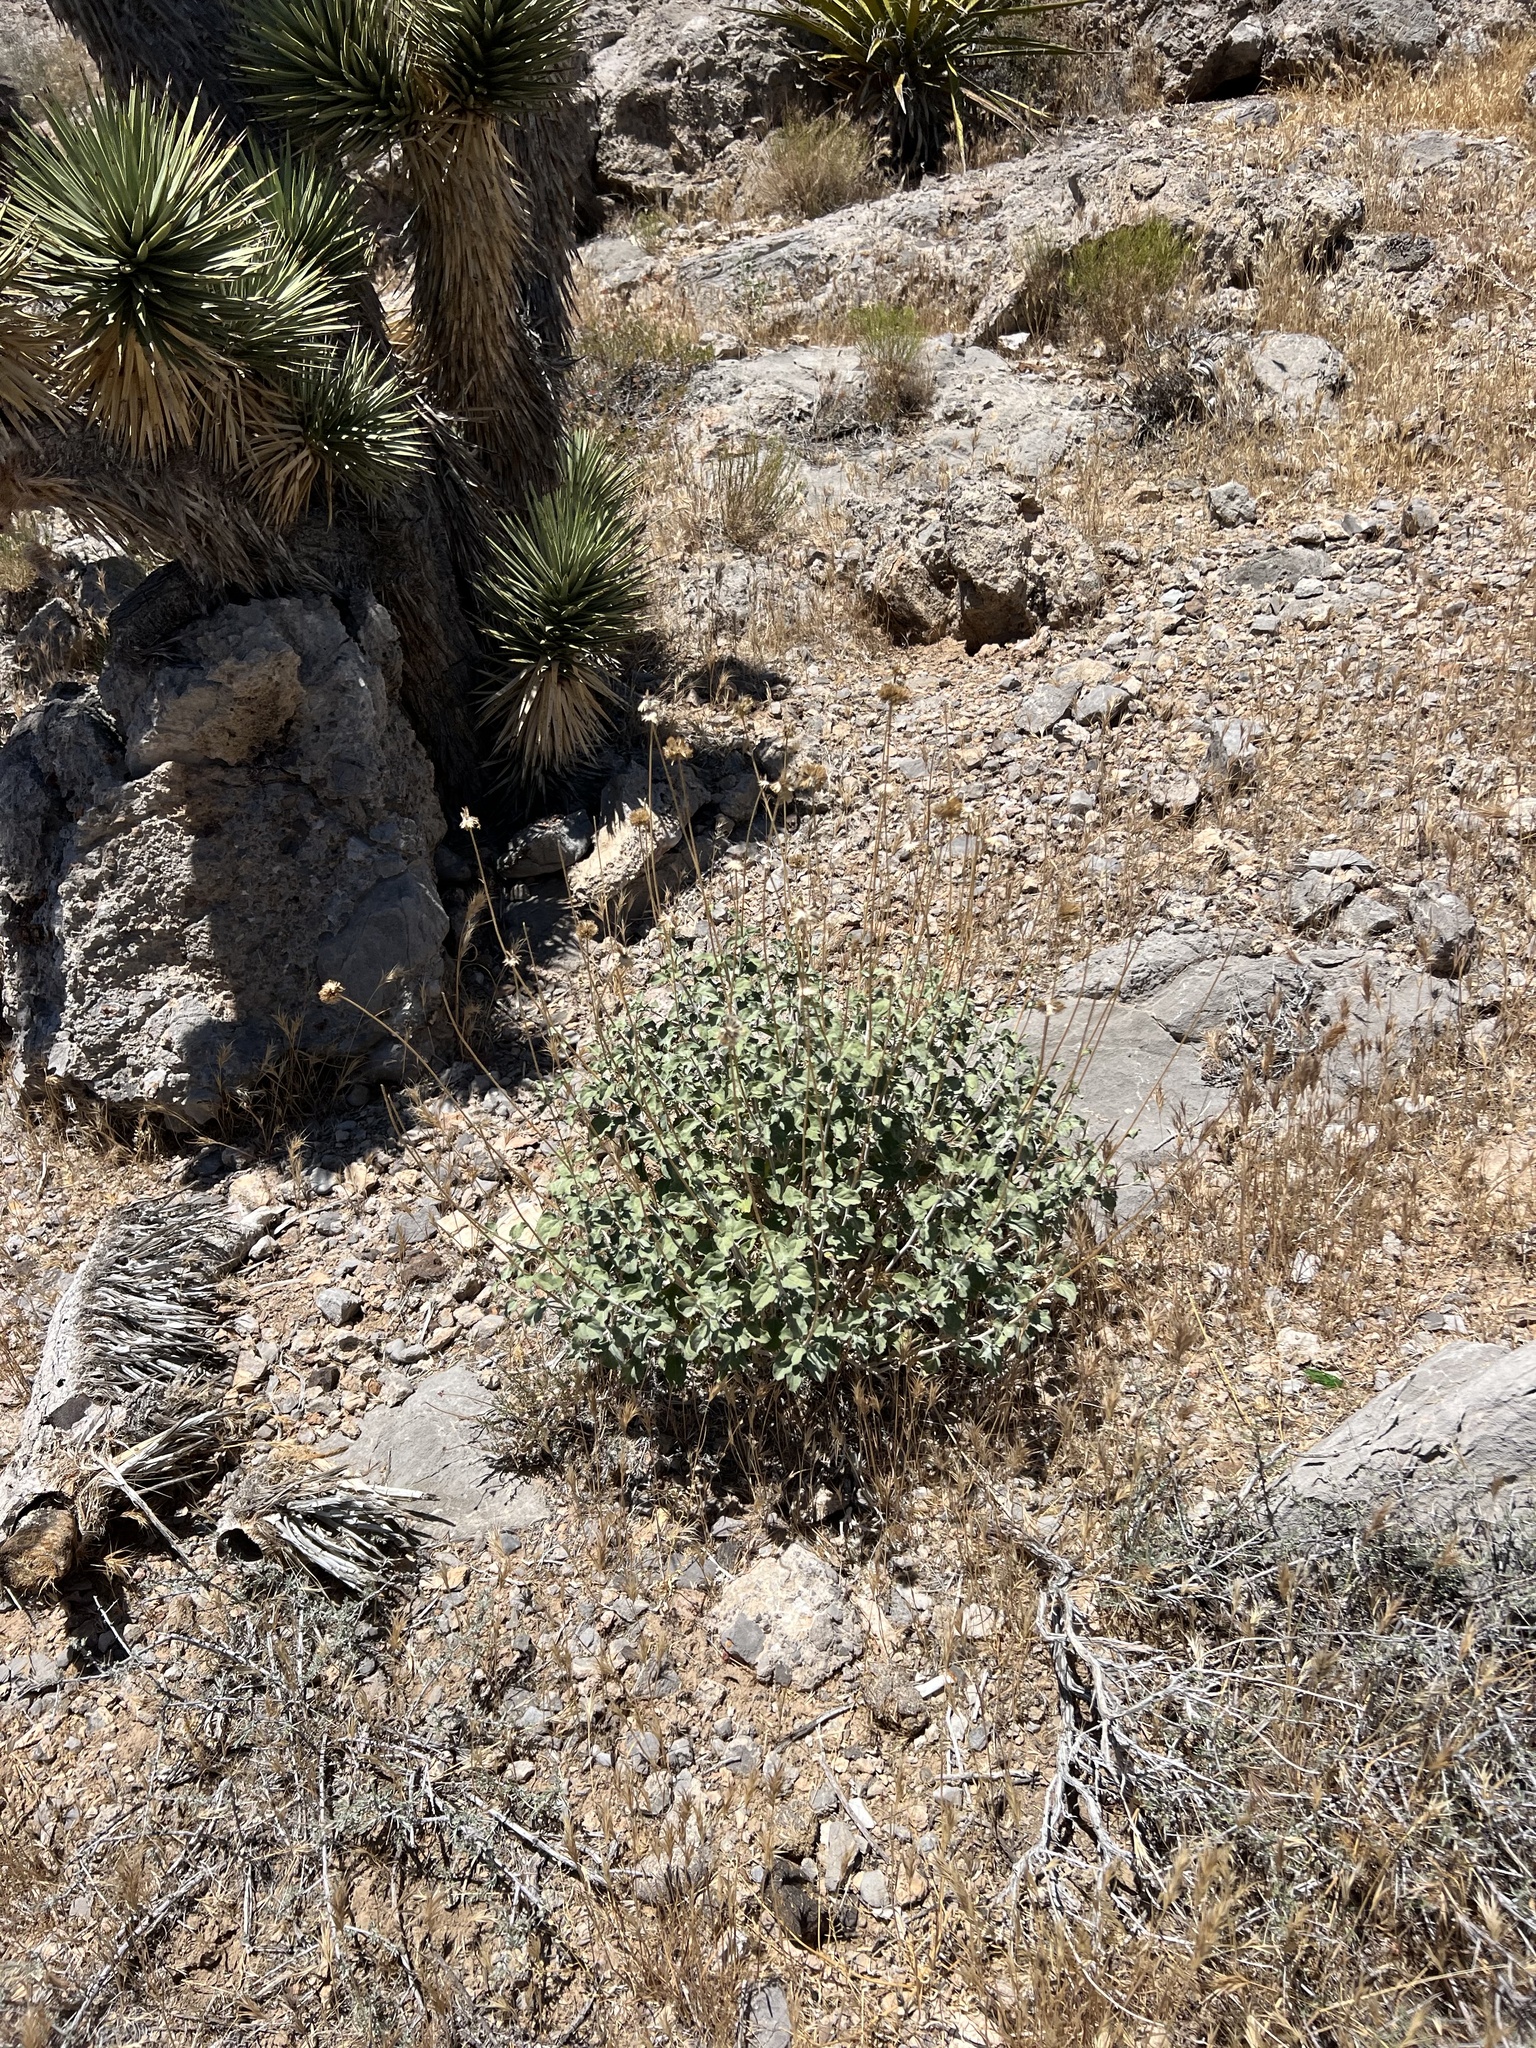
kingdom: Plantae
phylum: Tracheophyta
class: Magnoliopsida
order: Asterales
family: Asteraceae
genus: Encelia
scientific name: Encelia
